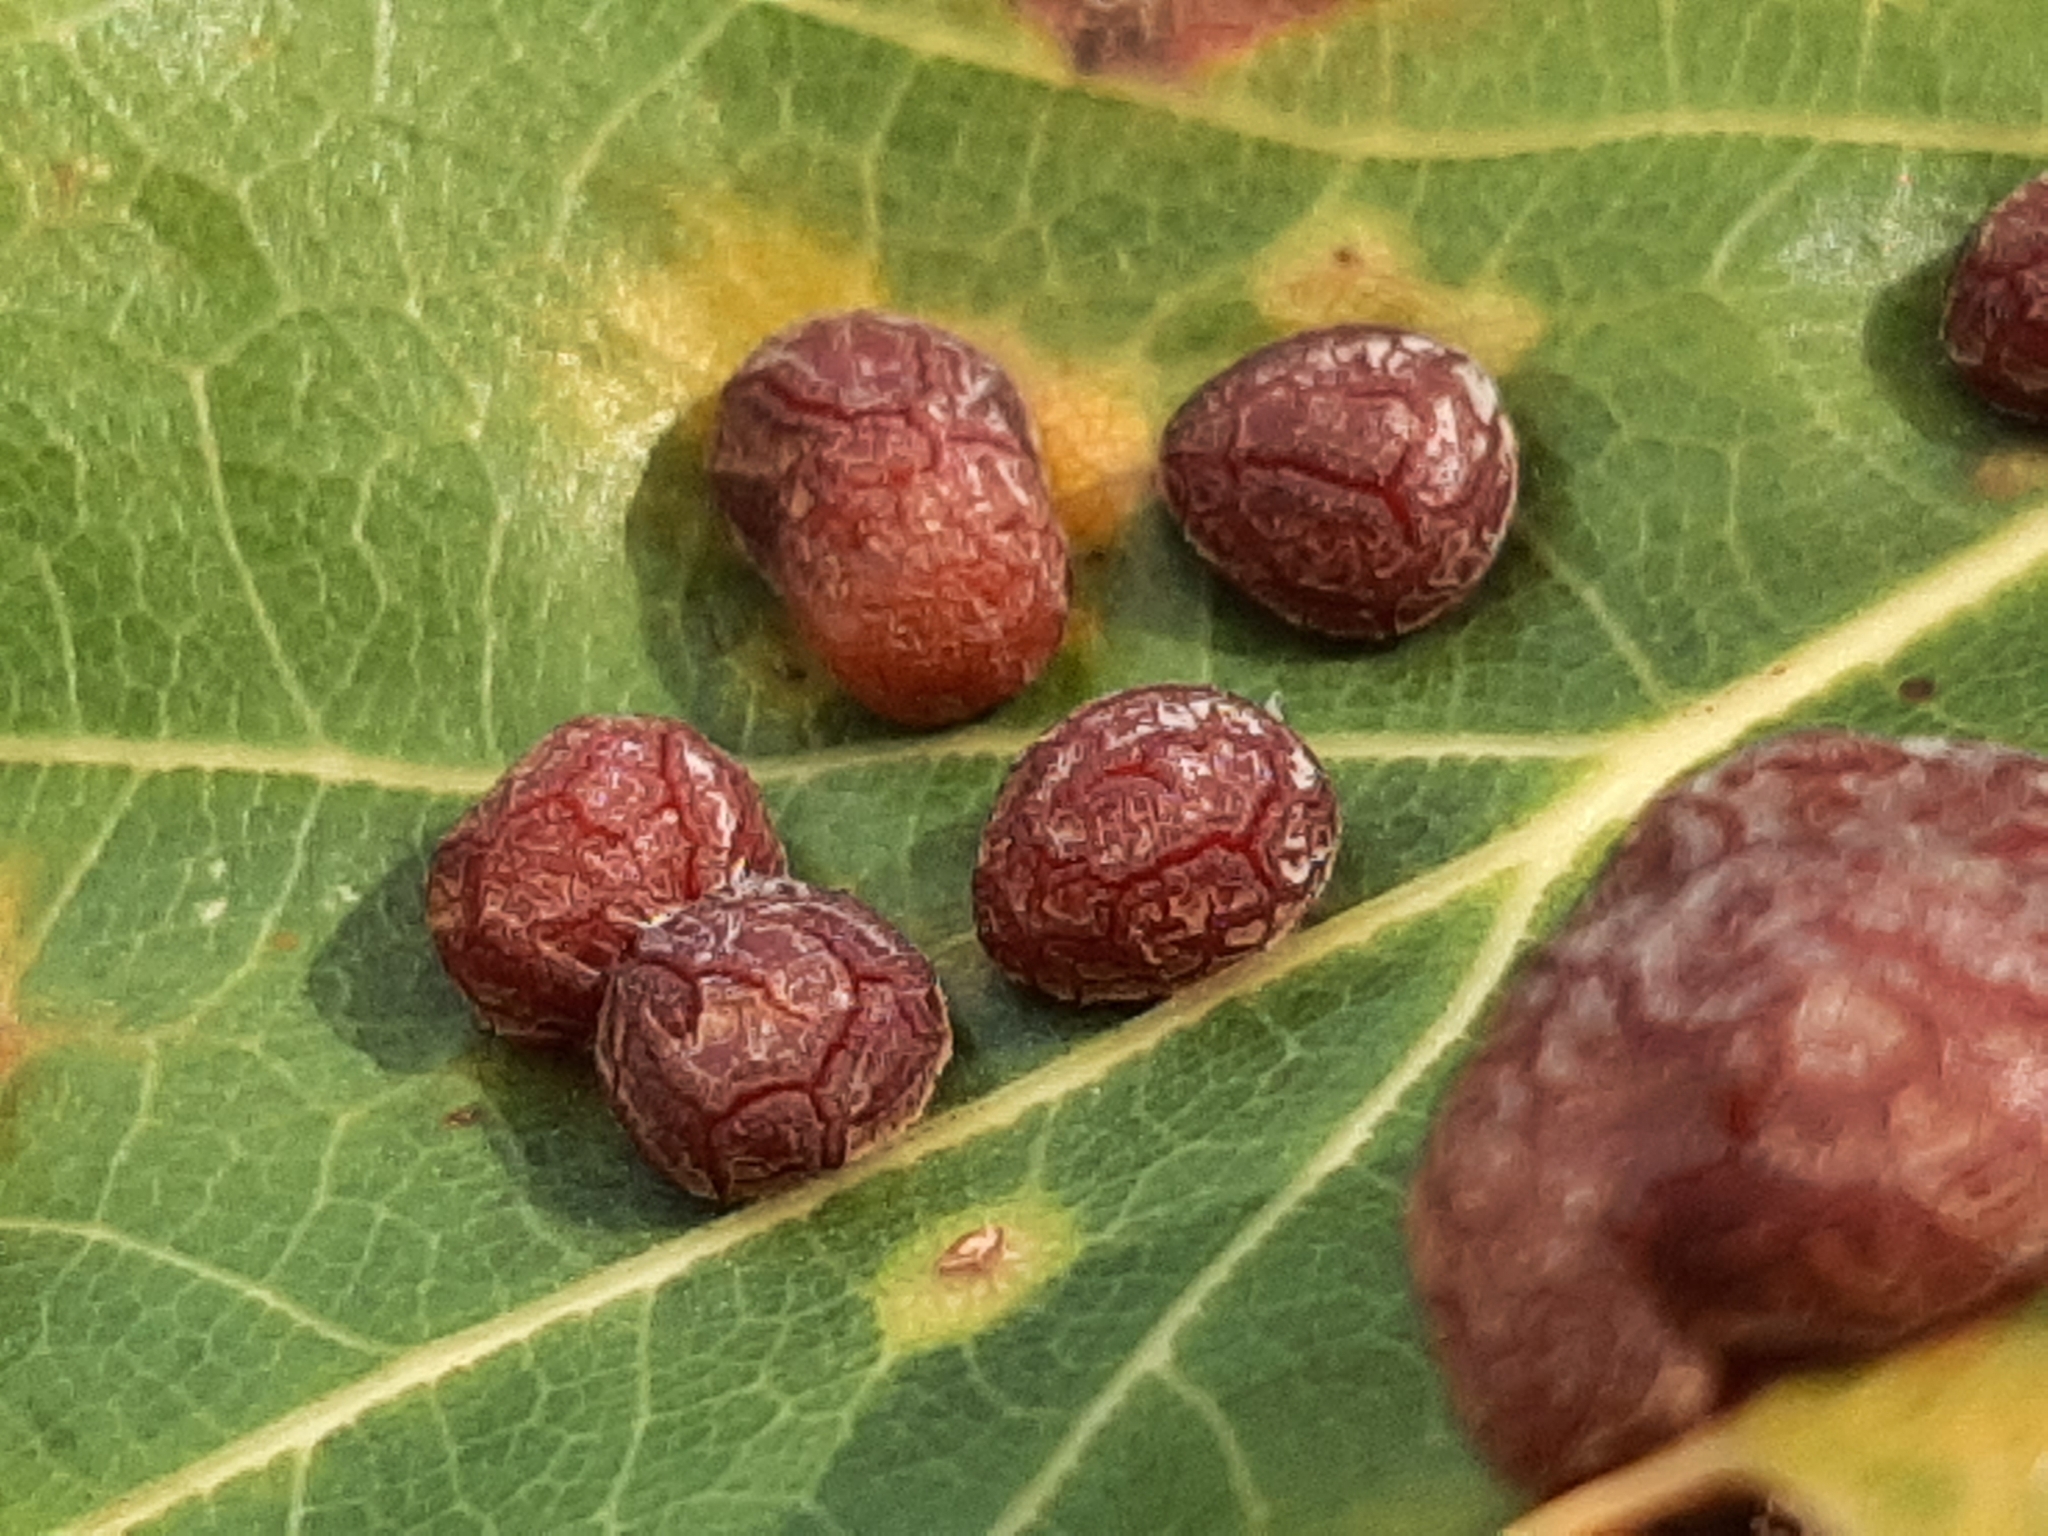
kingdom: Animalia
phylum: Arthropoda
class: Insecta
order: Diptera
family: Cecidomyiidae
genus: Polystepha
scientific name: Polystepha pilulae
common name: Oak leaf gall midge
